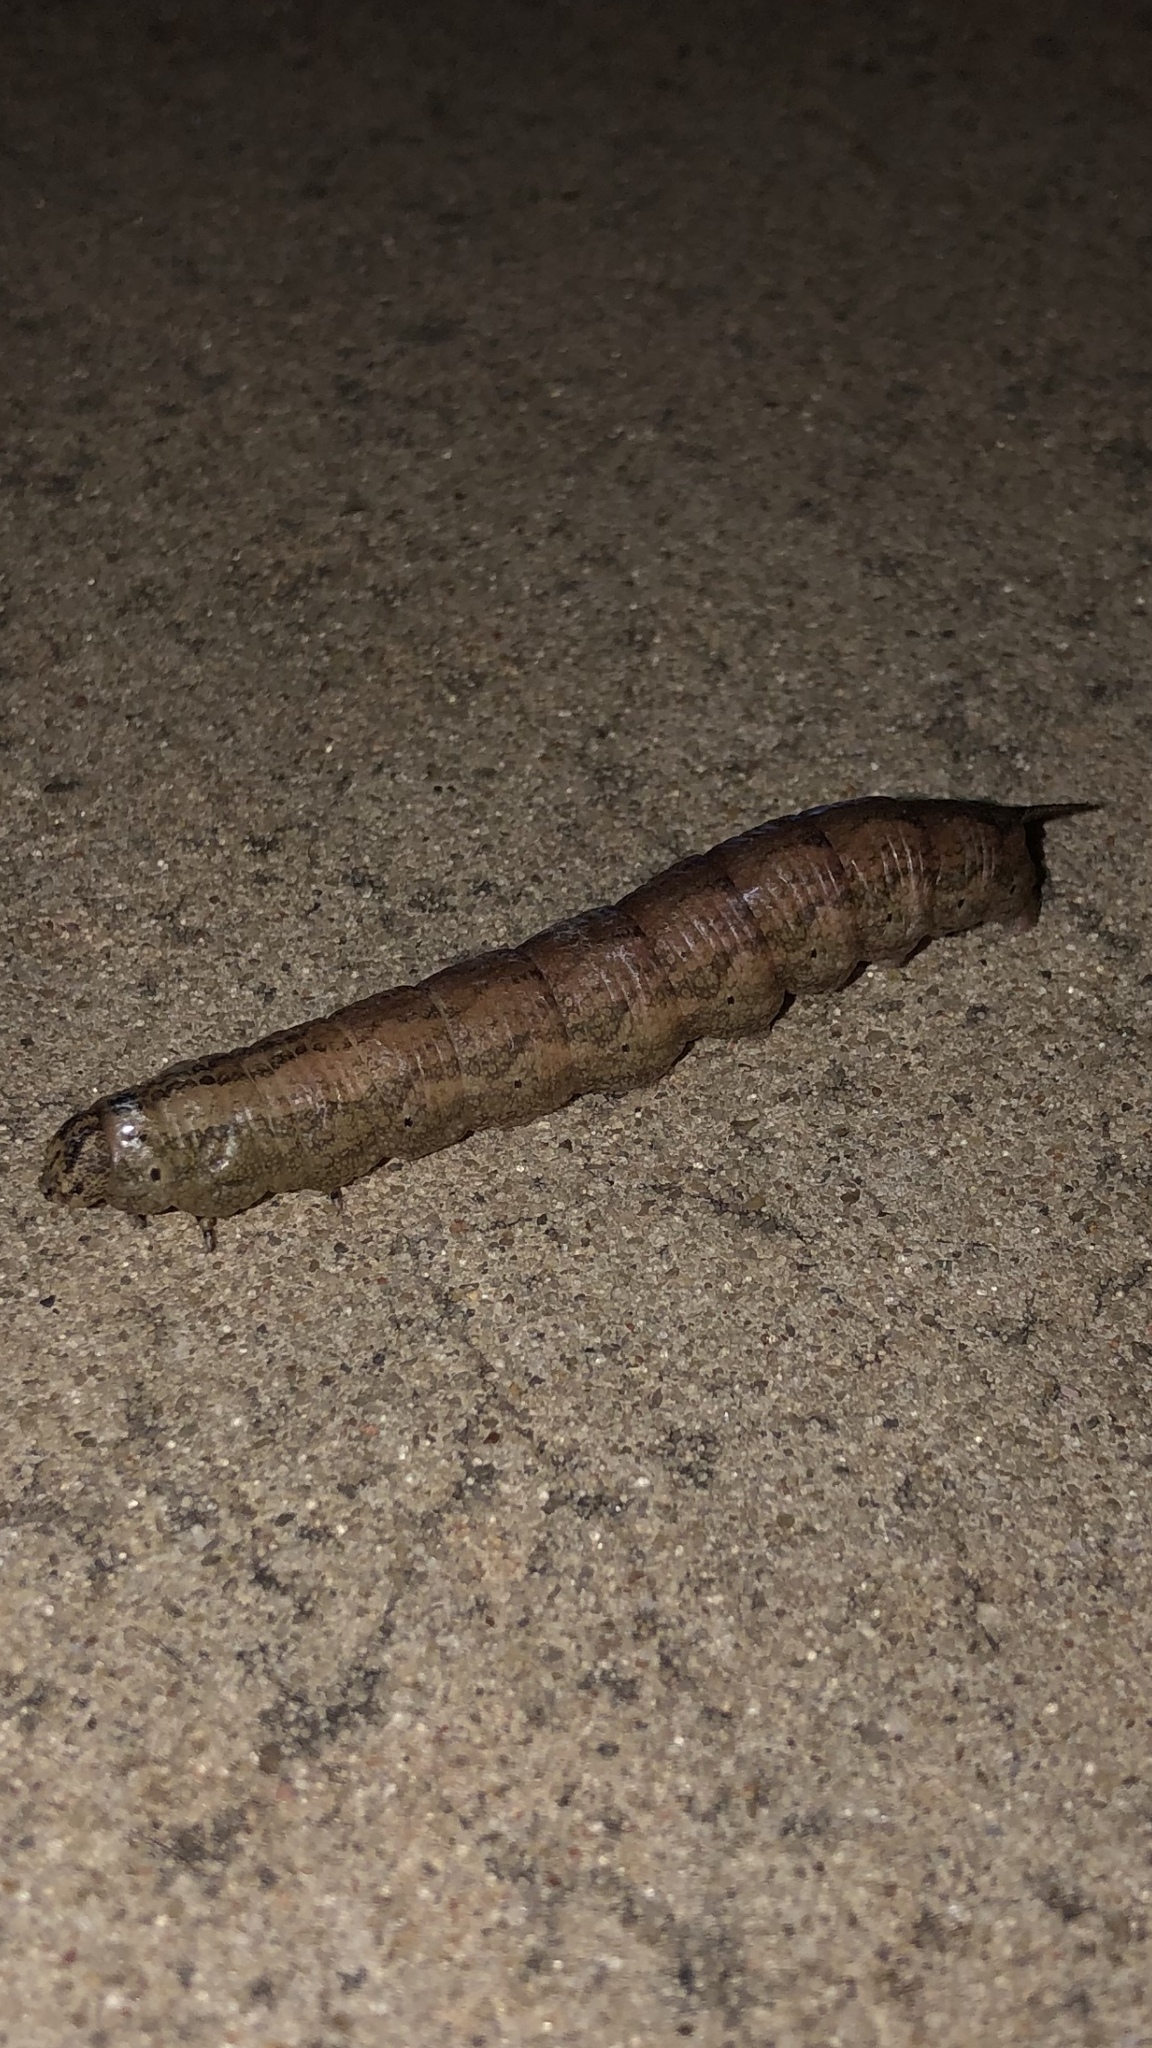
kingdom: Animalia
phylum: Arthropoda
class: Insecta
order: Lepidoptera
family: Sphingidae
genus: Ceratomia
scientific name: Ceratomia hageni
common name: Hagen's sphinx
